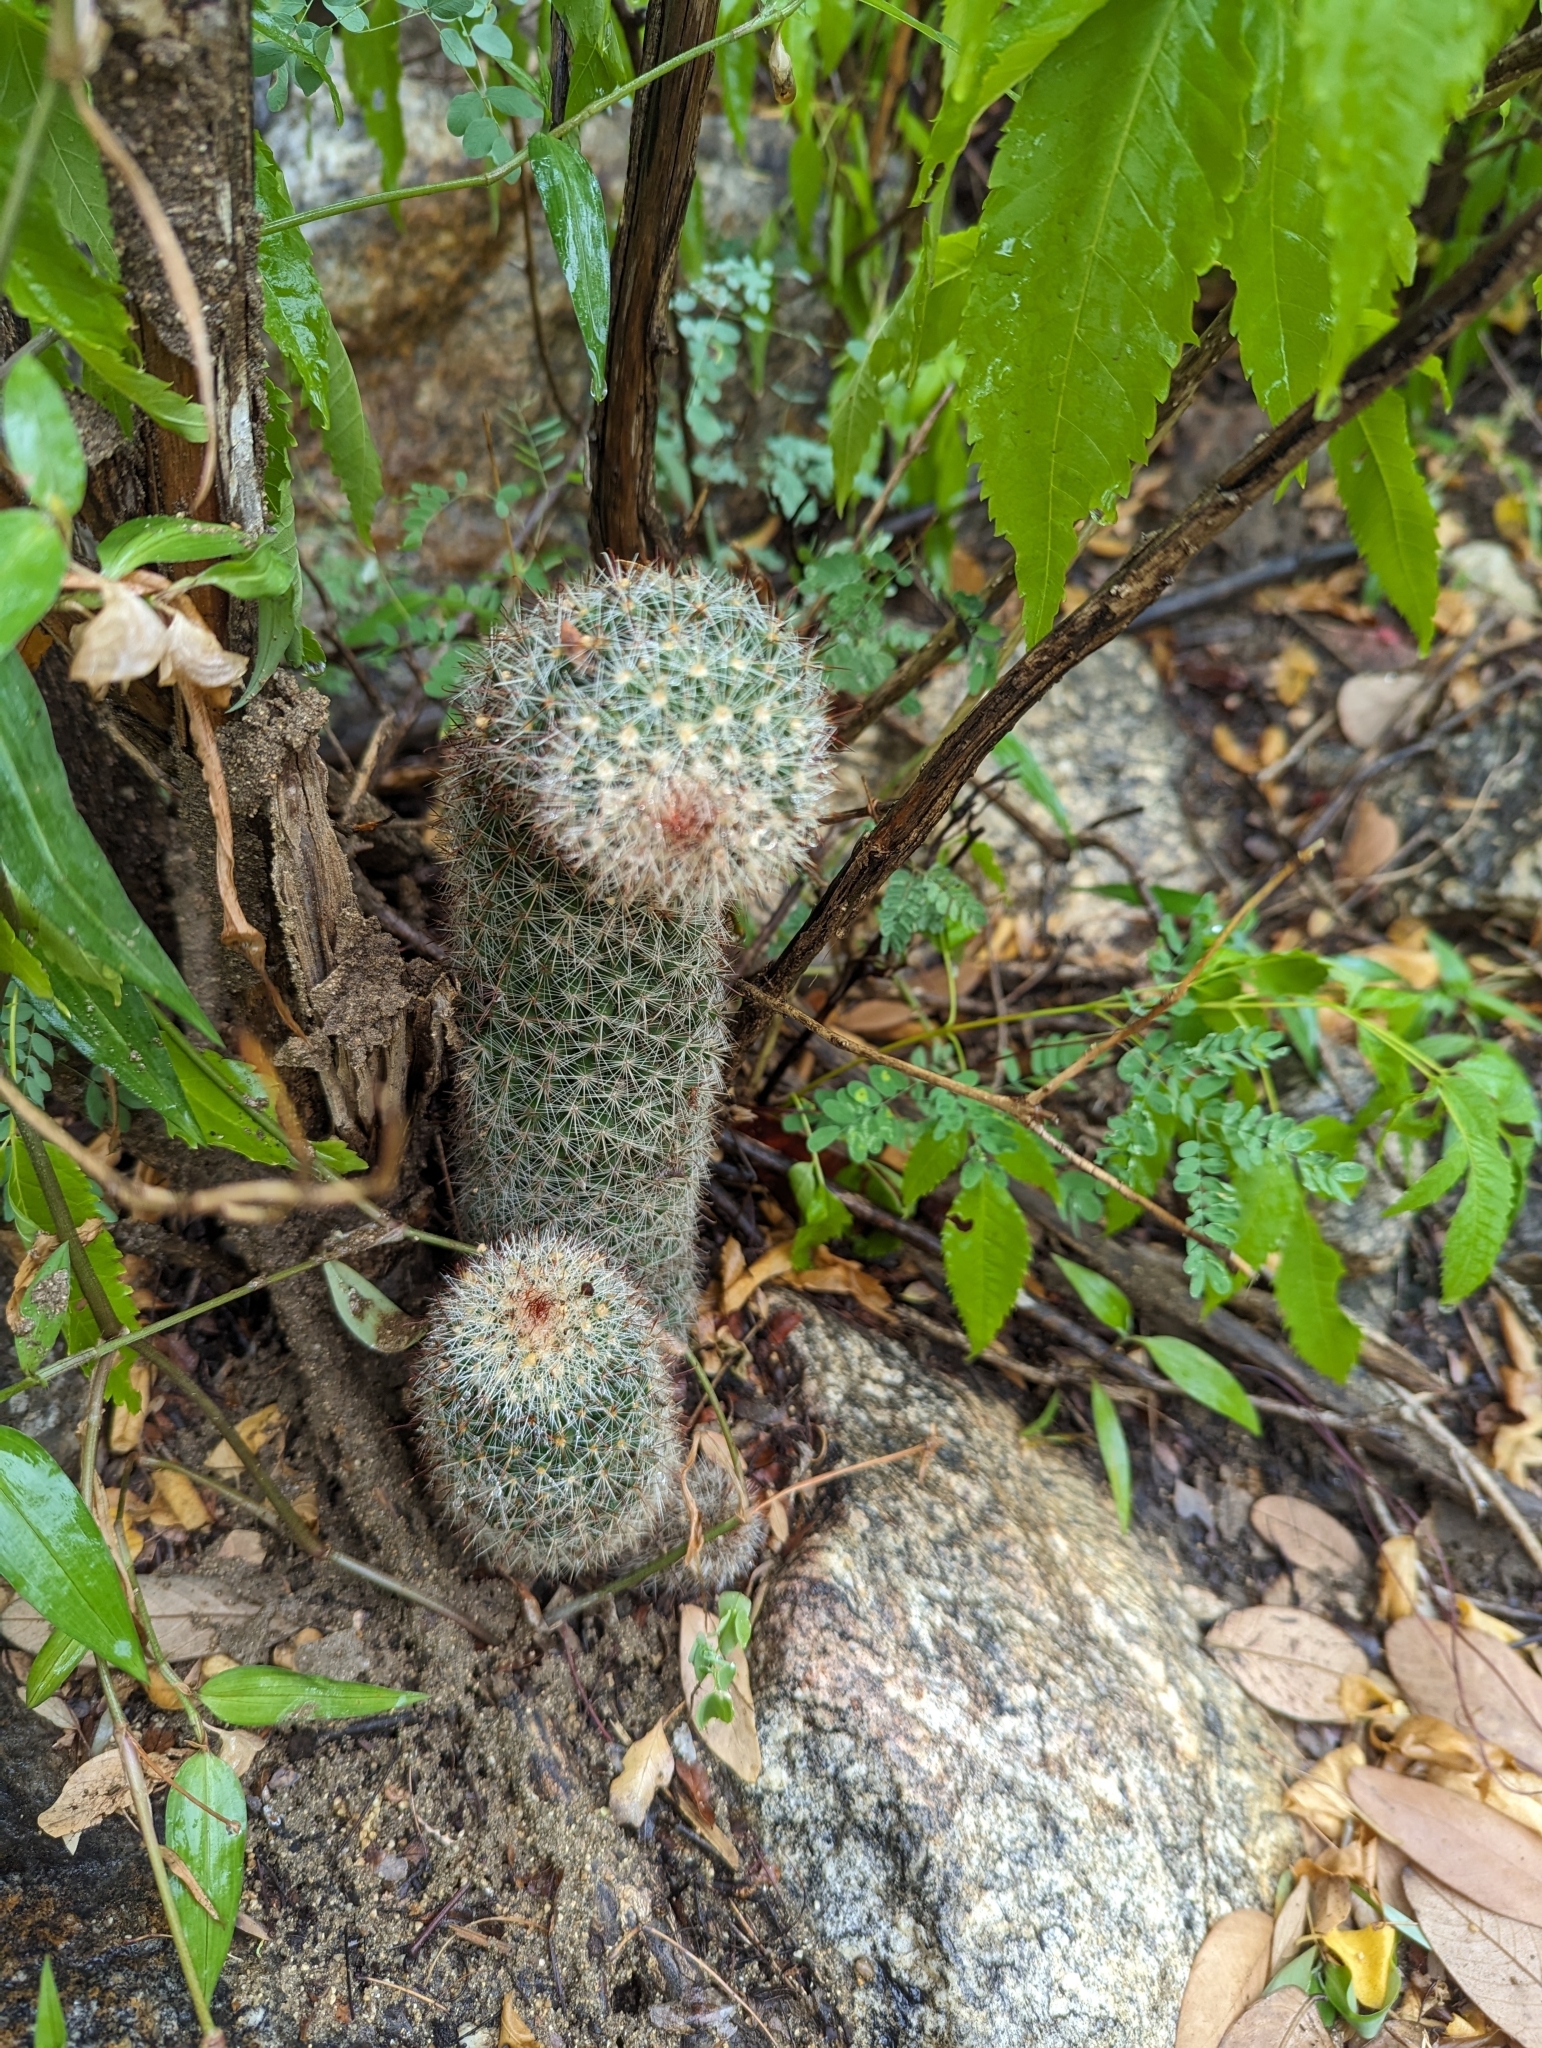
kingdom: Plantae
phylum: Tracheophyta
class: Magnoliopsida
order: Caryophyllales
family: Cactaceae
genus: Cochemiea
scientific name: Cochemiea phitauiana
